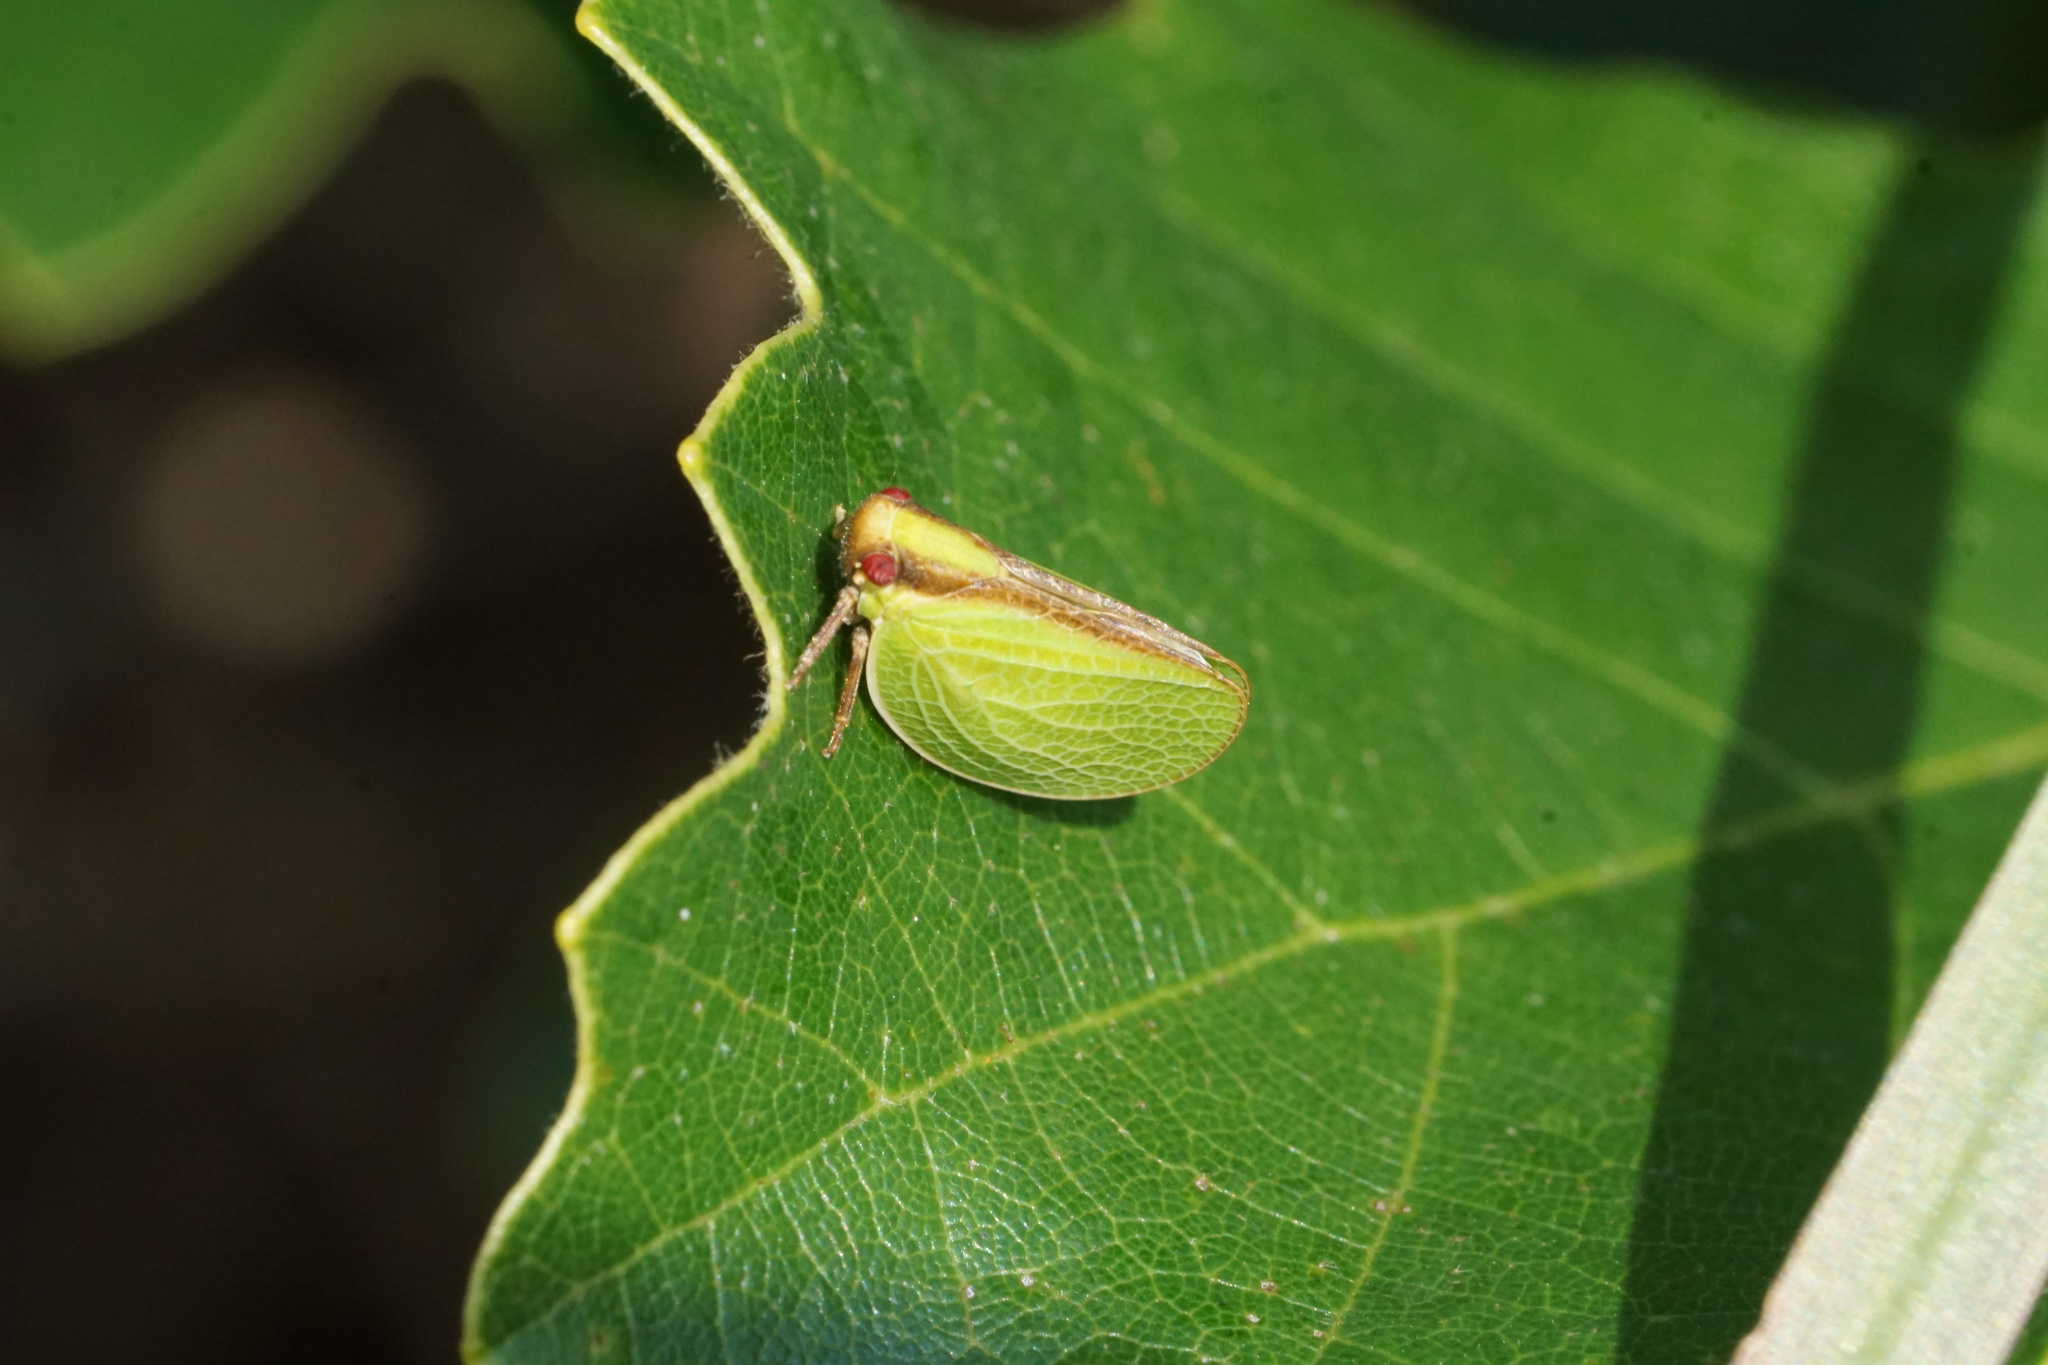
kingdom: Animalia
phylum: Arthropoda
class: Insecta
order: Hemiptera
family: Acanaloniidae
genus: Acanalonia
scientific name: Acanalonia bivittata
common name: Two-striped planthopper
